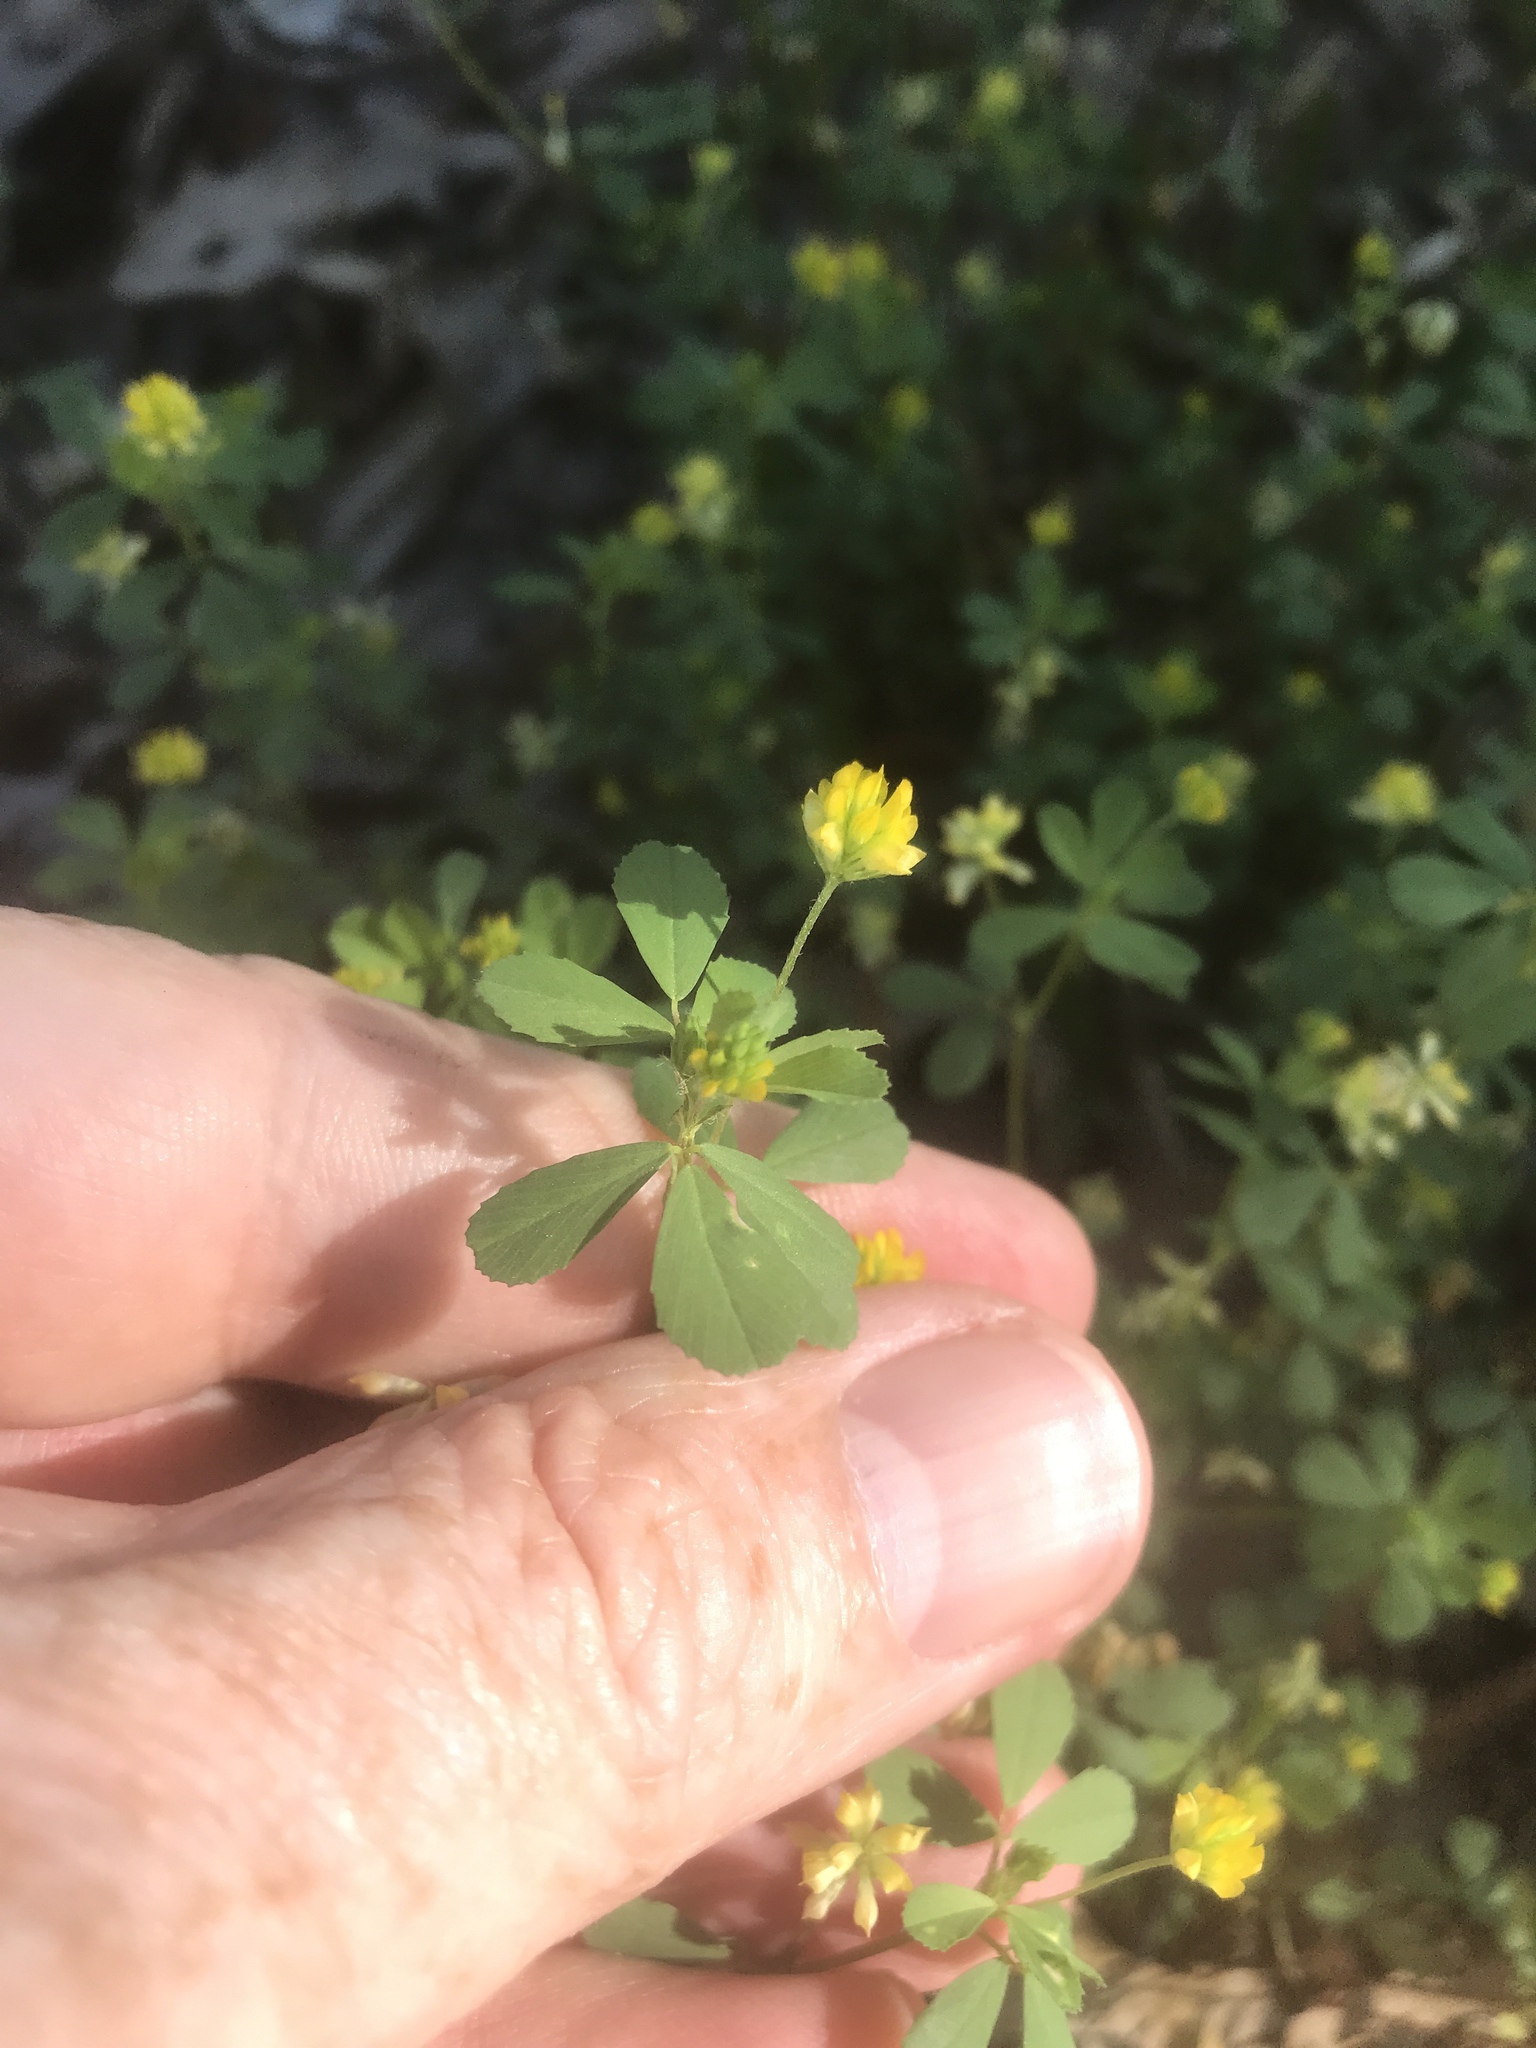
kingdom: Plantae
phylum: Tracheophyta
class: Magnoliopsida
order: Fabales
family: Fabaceae
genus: Trifolium
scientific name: Trifolium dubium
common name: Suckling clover
